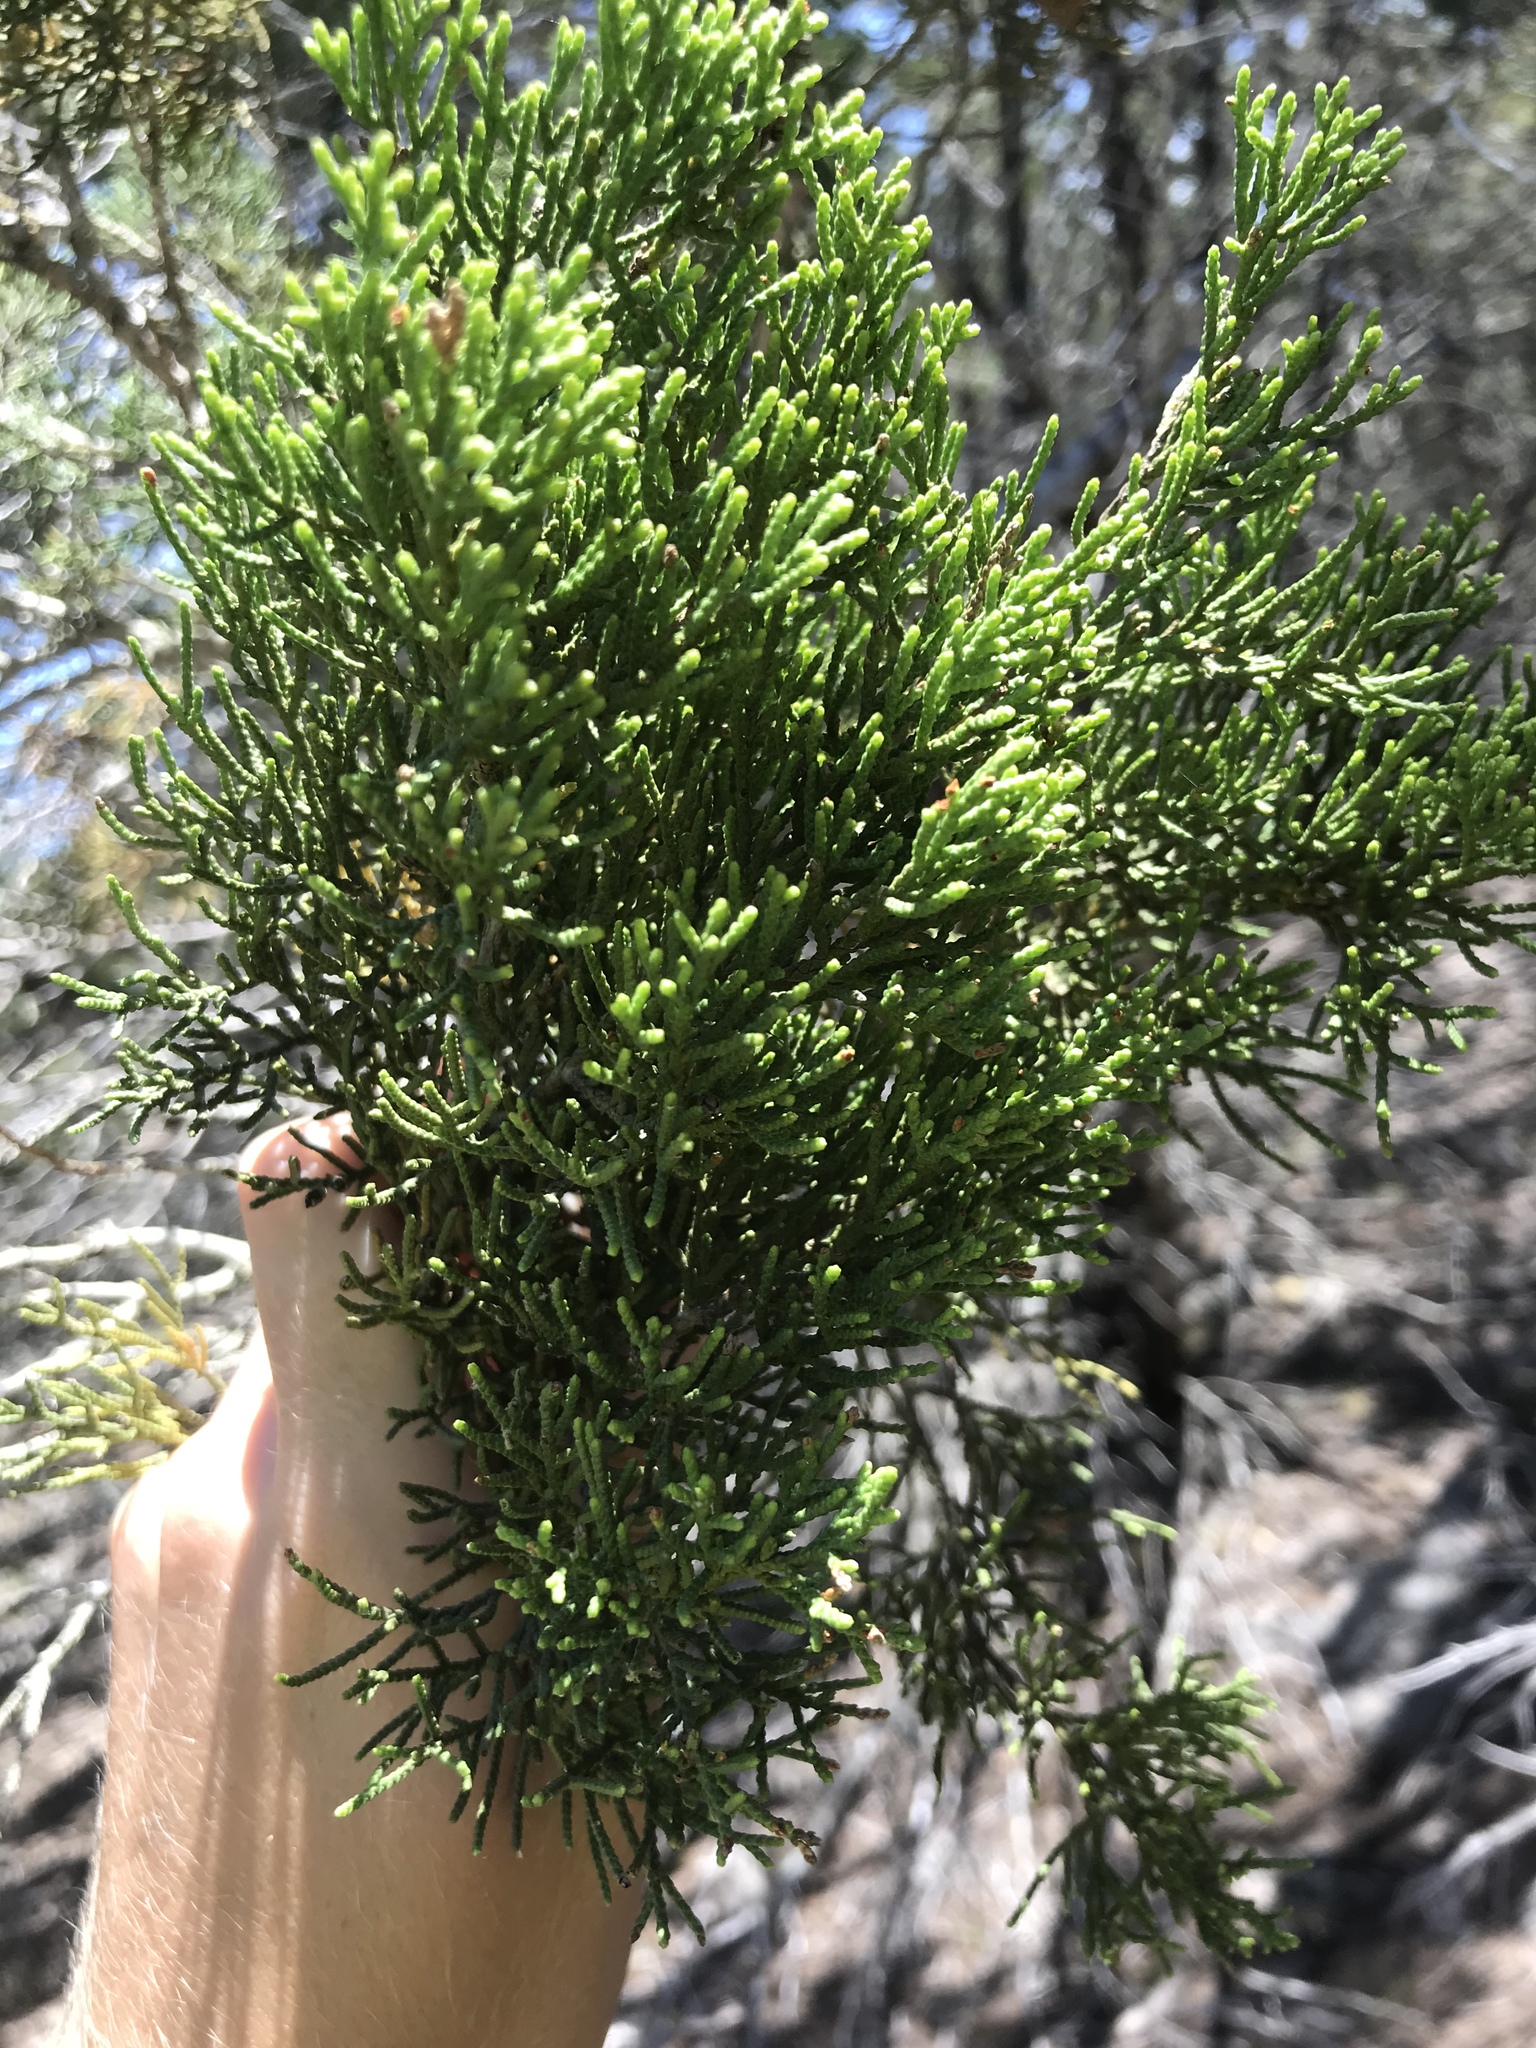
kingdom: Plantae
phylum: Tracheophyta
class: Pinopsida
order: Pinales
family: Cupressaceae
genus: Juniperus
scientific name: Juniperus ashei
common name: Mexican juniper
